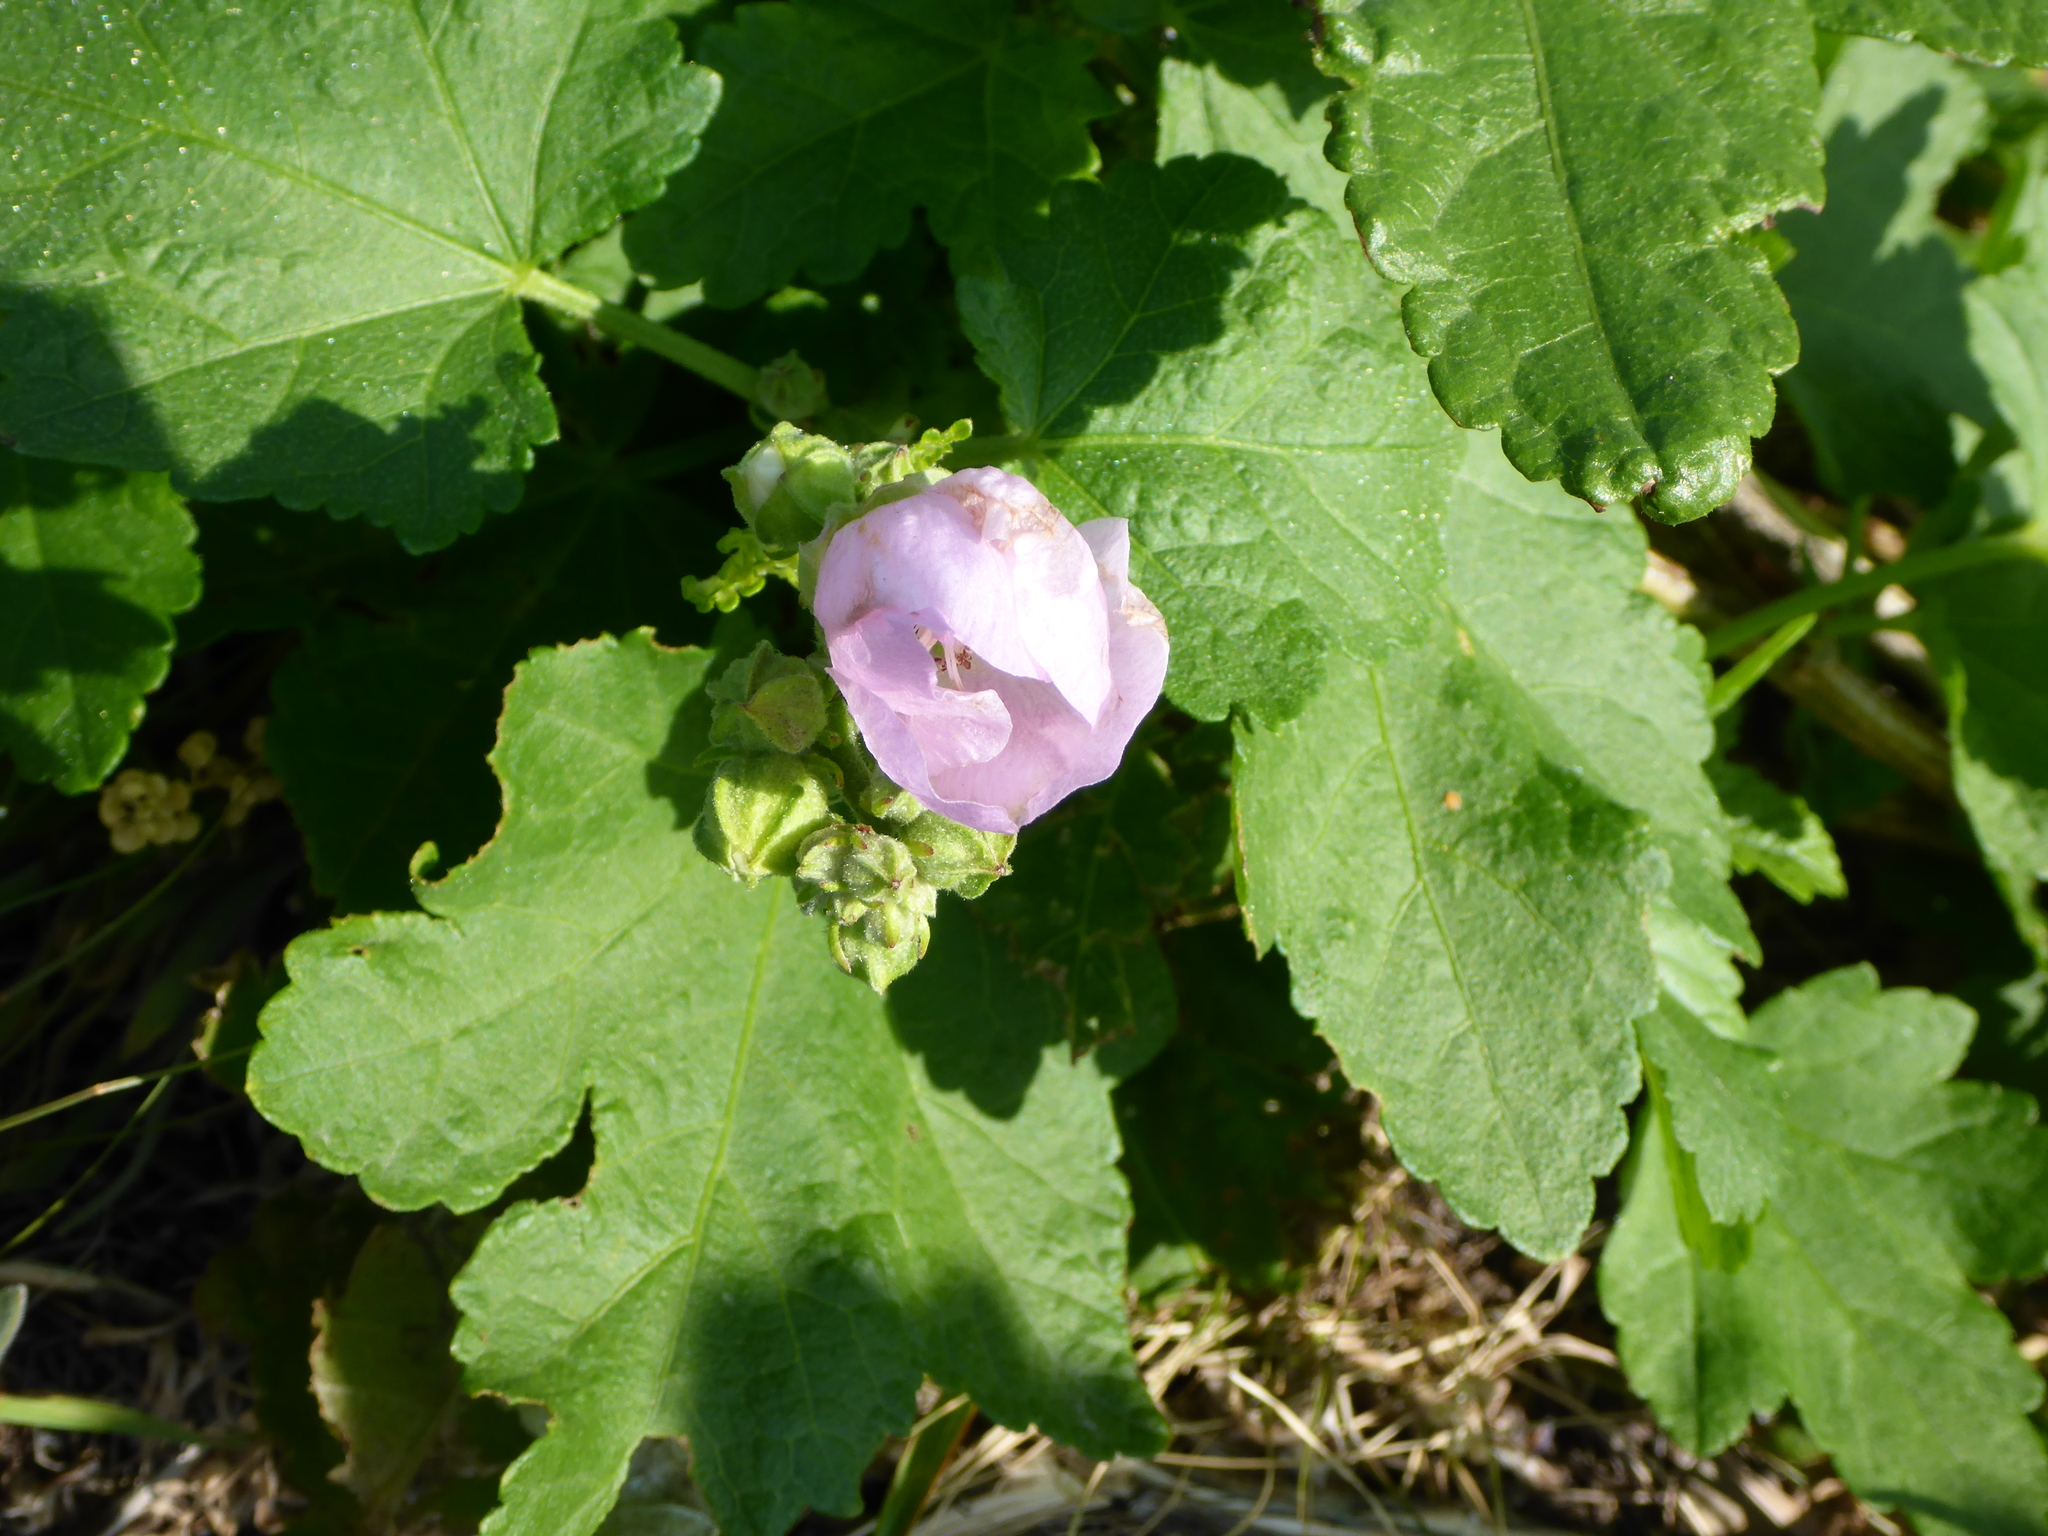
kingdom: Plantae
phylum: Tracheophyta
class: Magnoliopsida
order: Malvales
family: Malvaceae
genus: Iliamna
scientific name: Iliamna rivularis
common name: Wild hollyhock
